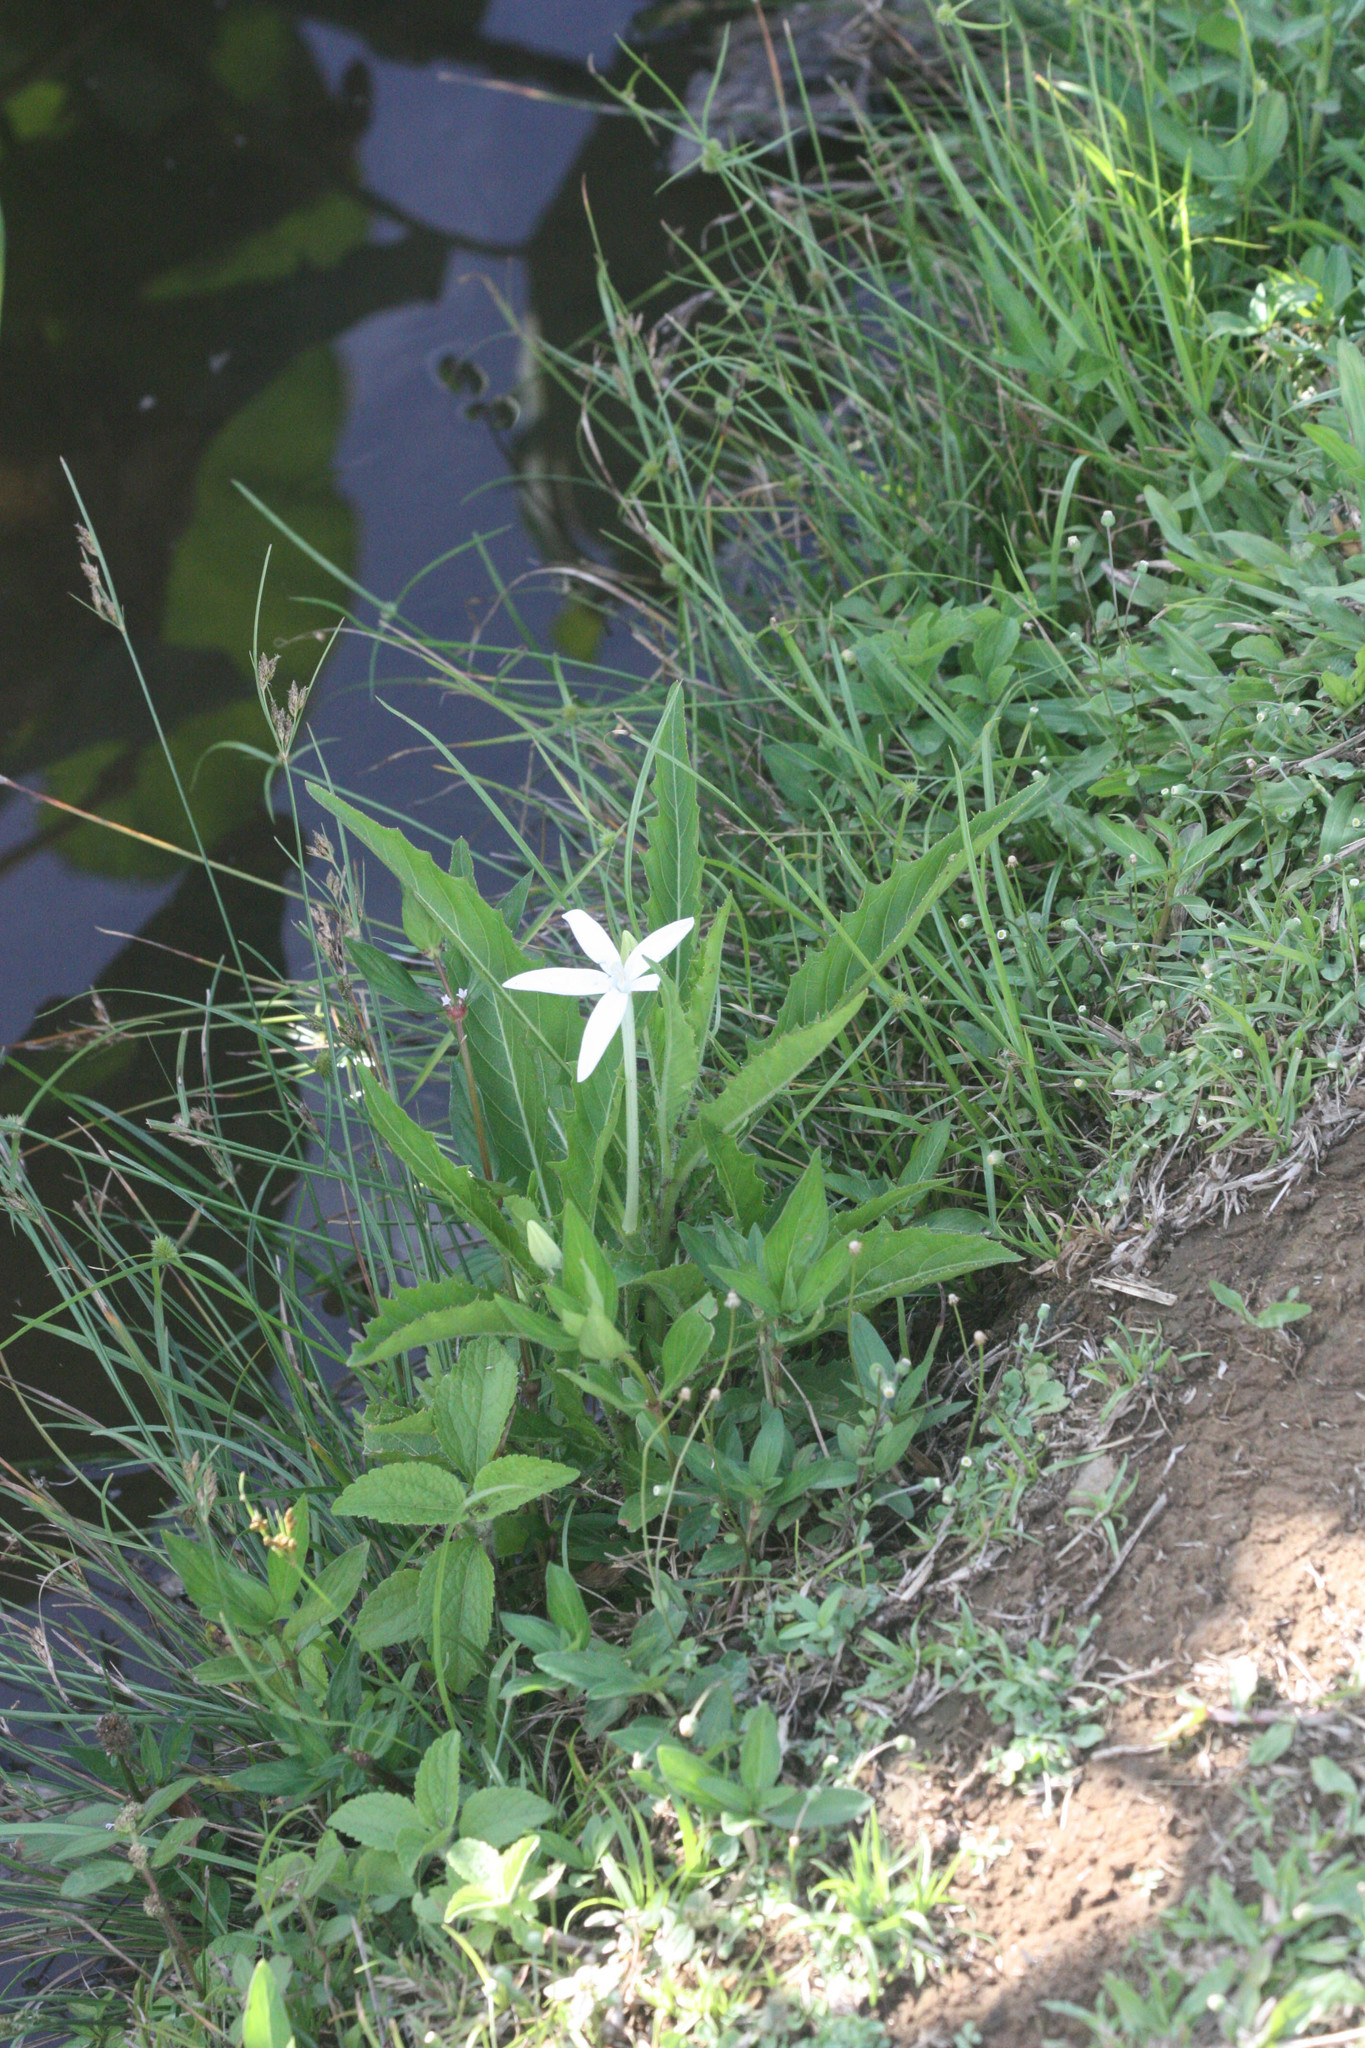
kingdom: Plantae
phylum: Tracheophyta
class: Magnoliopsida
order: Asterales
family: Campanulaceae
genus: Hippobroma
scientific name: Hippobroma longiflora
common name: Madamfate
